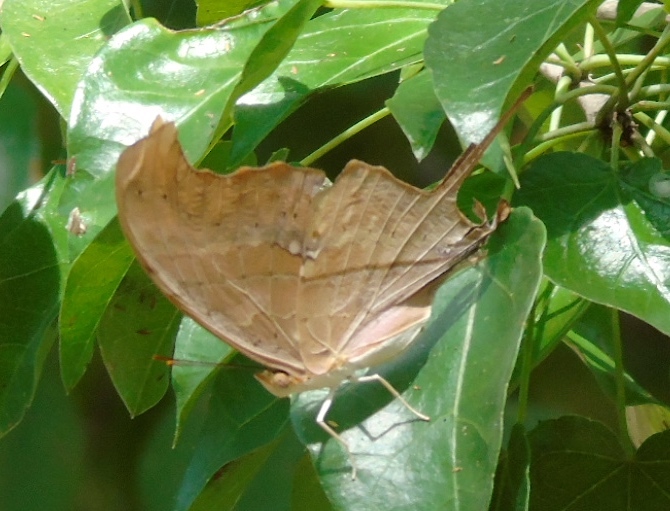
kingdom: Animalia
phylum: Arthropoda
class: Insecta
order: Lepidoptera
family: Nymphalidae
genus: Marpesia
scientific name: Marpesia petreus
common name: Red dagger wing
